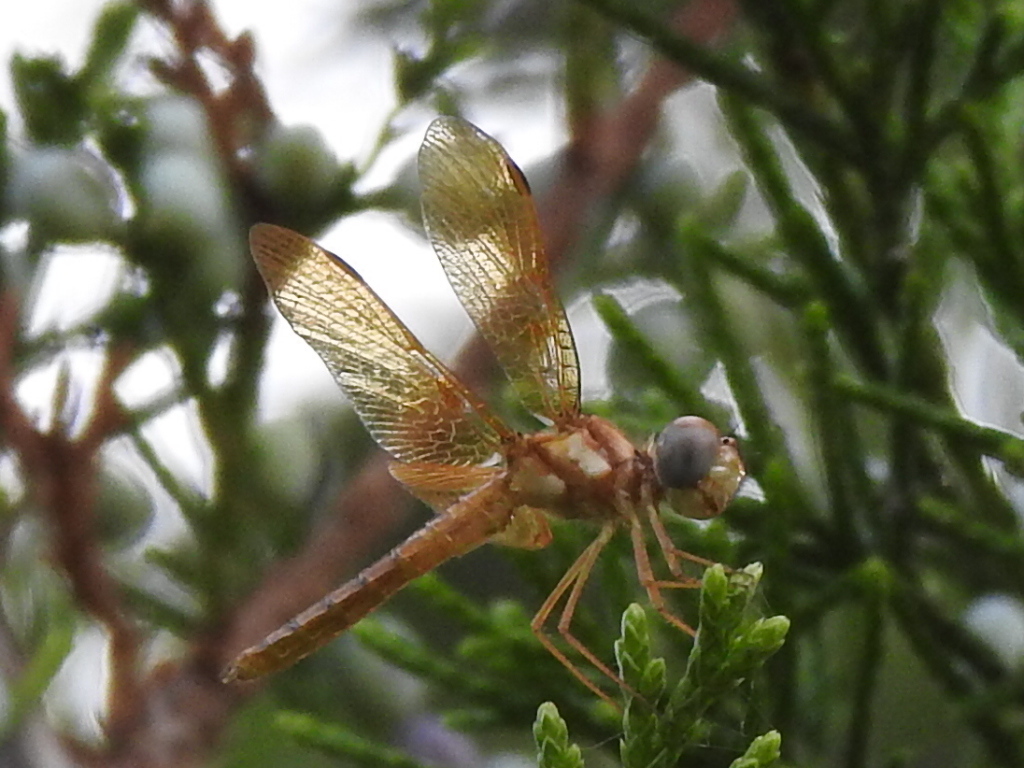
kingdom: Animalia
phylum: Arthropoda
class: Insecta
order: Odonata
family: Libellulidae
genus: Perithemis
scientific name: Perithemis tenera
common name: Eastern amberwing
